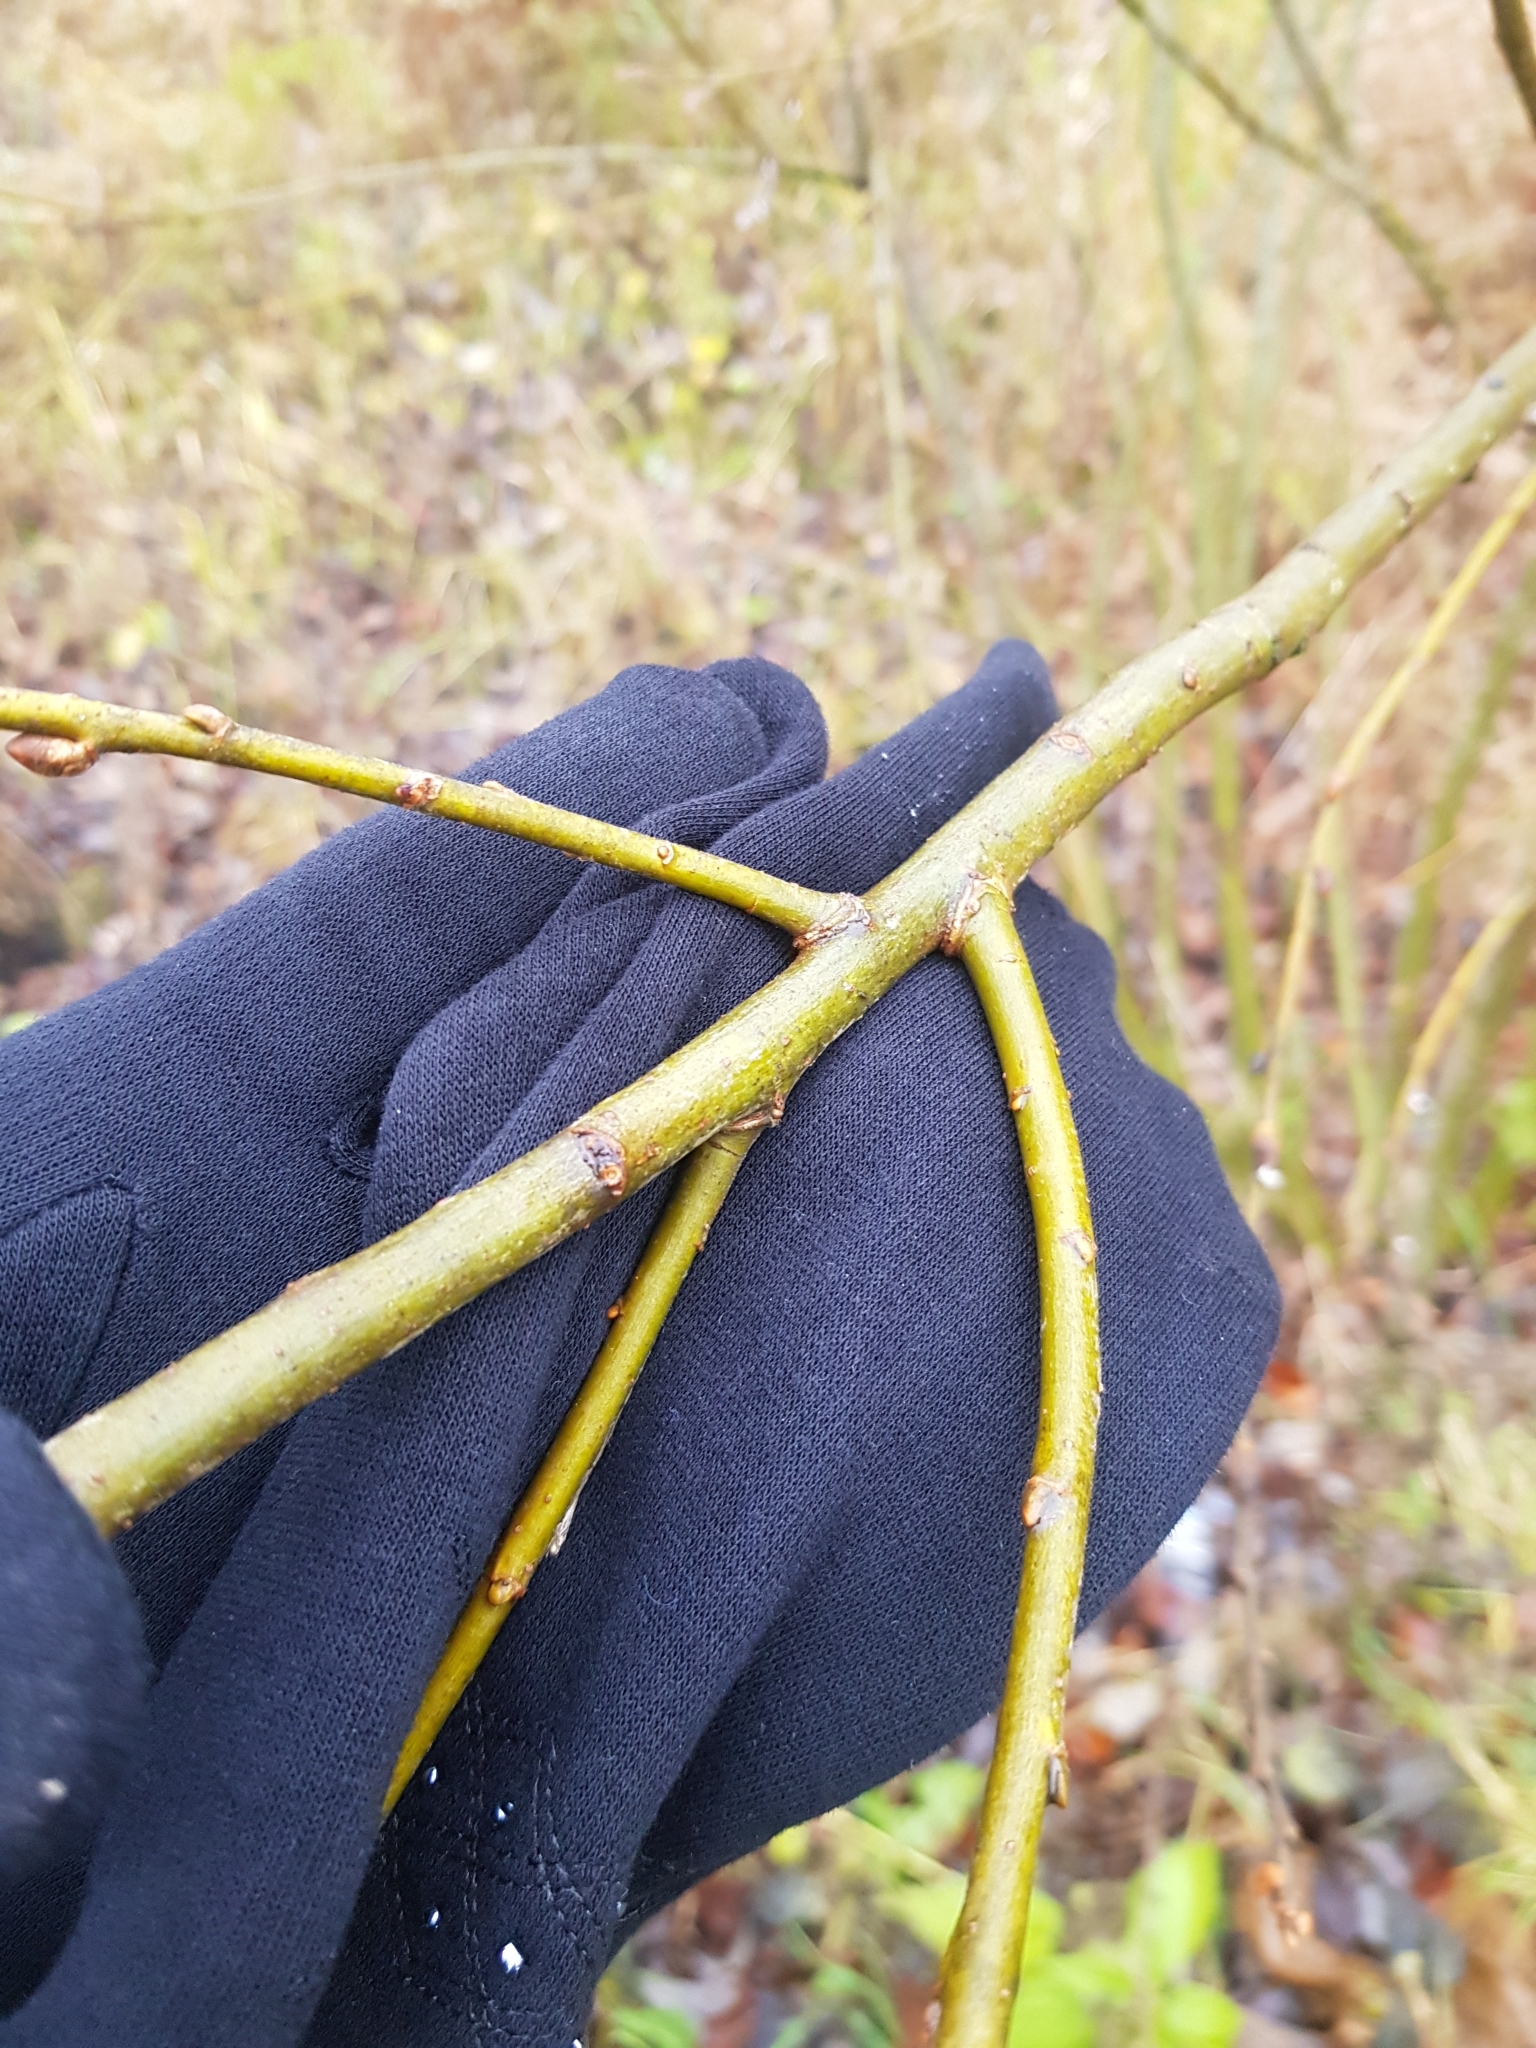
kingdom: Plantae
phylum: Tracheophyta
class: Magnoliopsida
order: Malpighiales
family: Salicaceae
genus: Salix
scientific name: Salix caprea
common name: Goat willow
